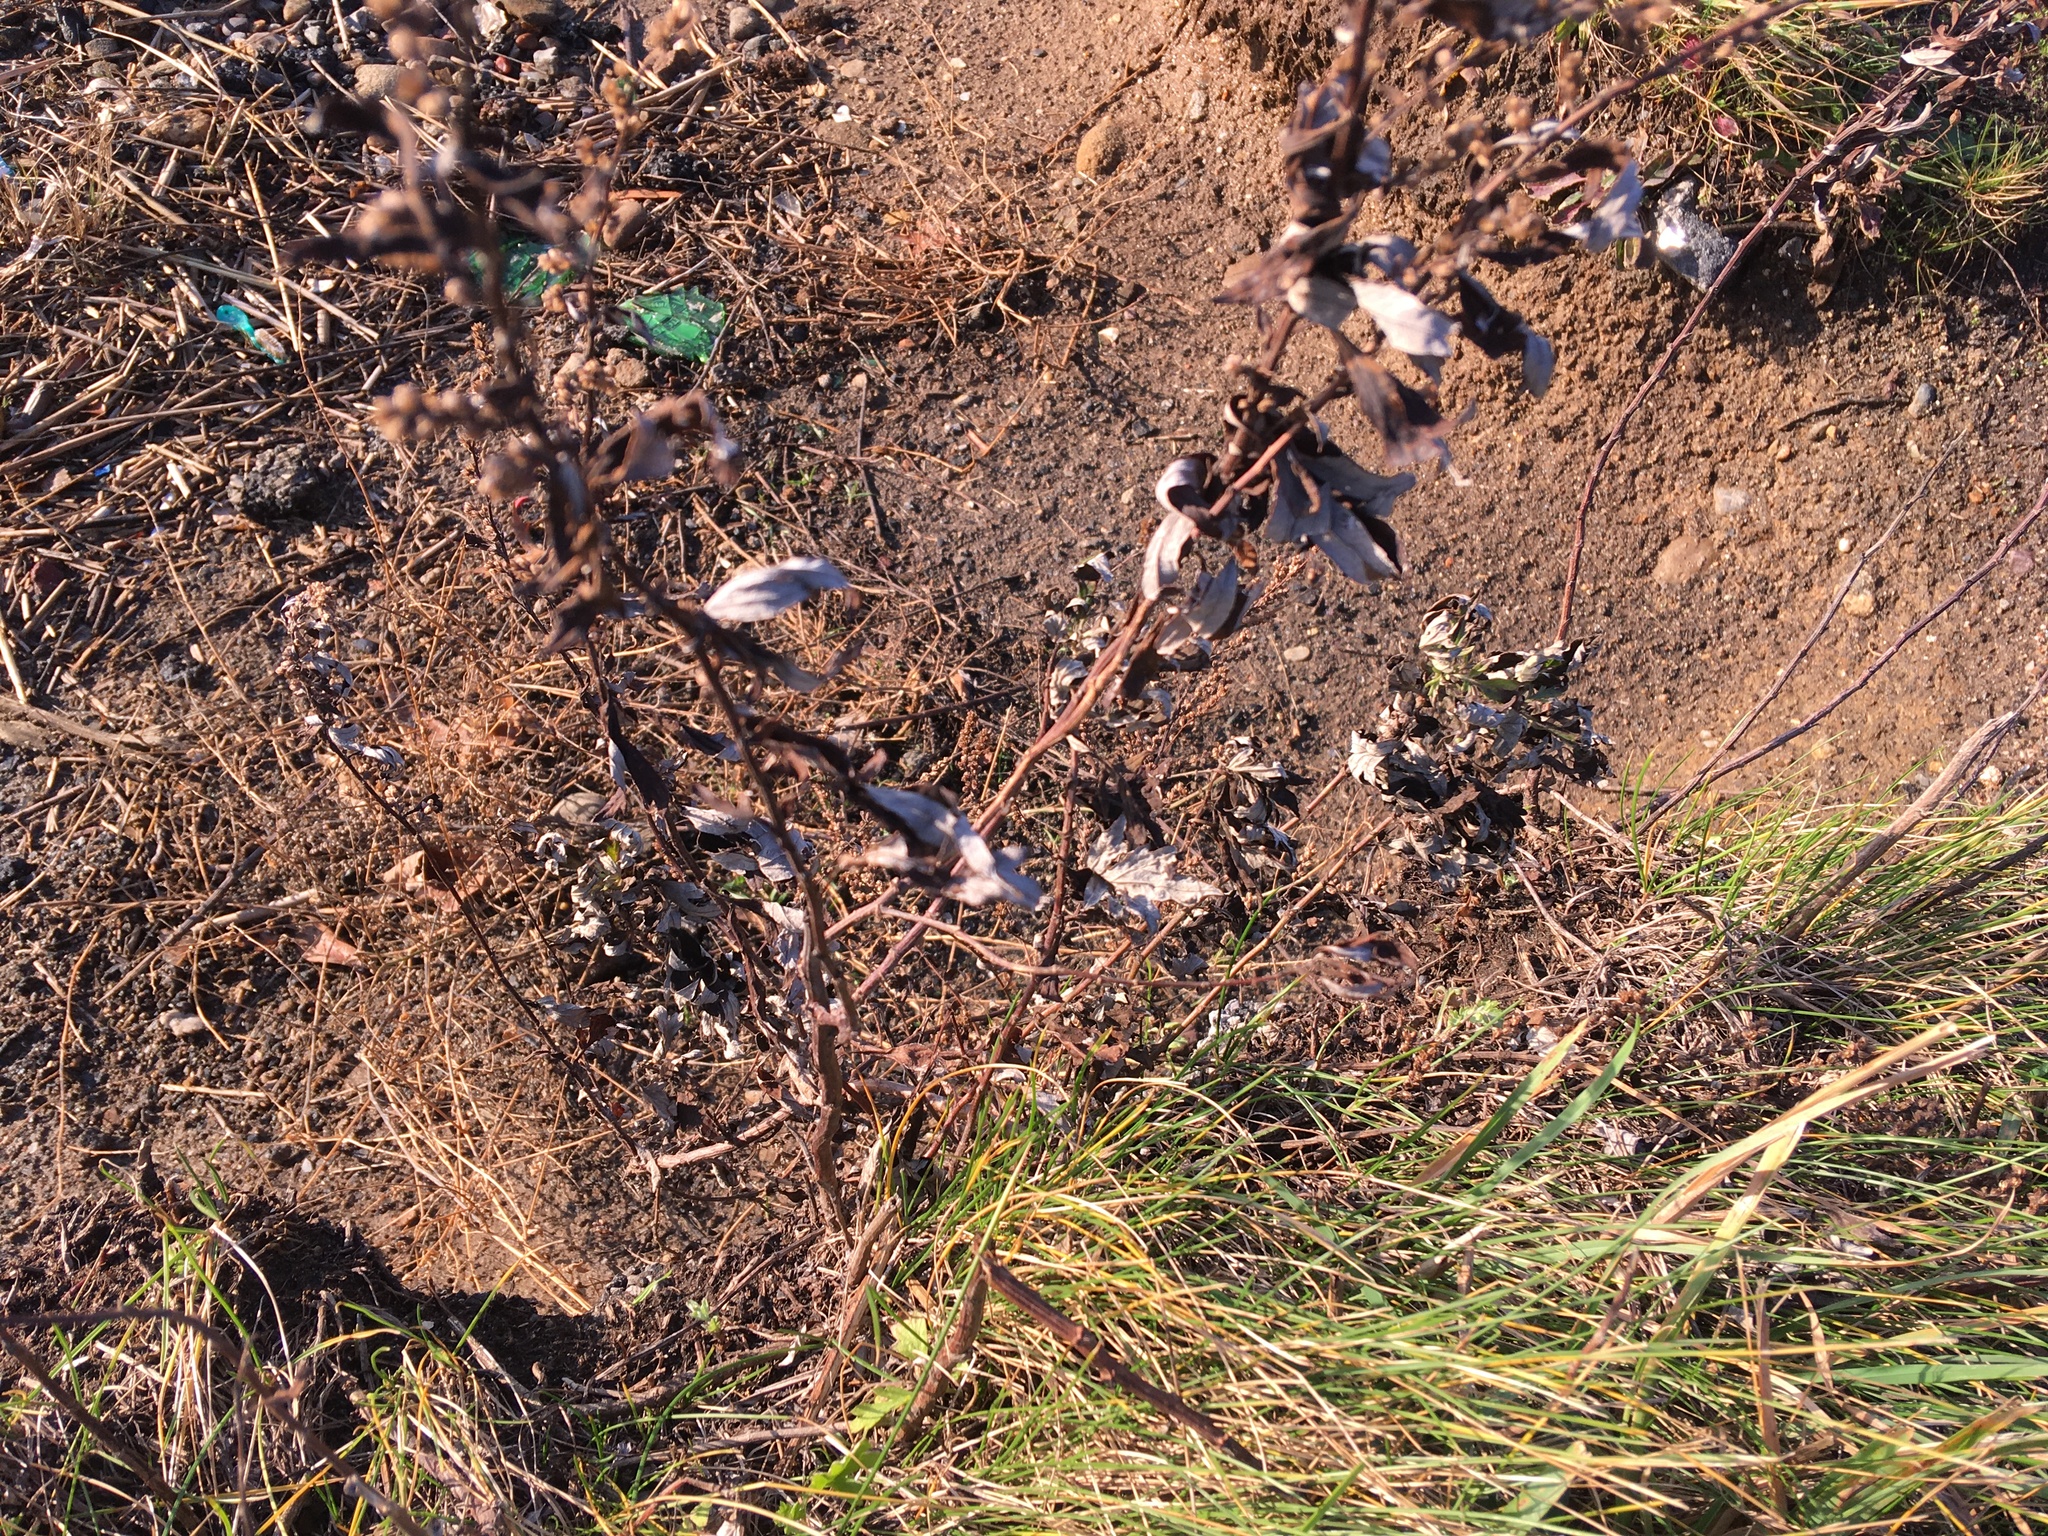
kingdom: Plantae
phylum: Tracheophyta
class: Magnoliopsida
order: Asterales
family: Asteraceae
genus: Artemisia
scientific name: Artemisia vulgaris
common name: Mugwort
